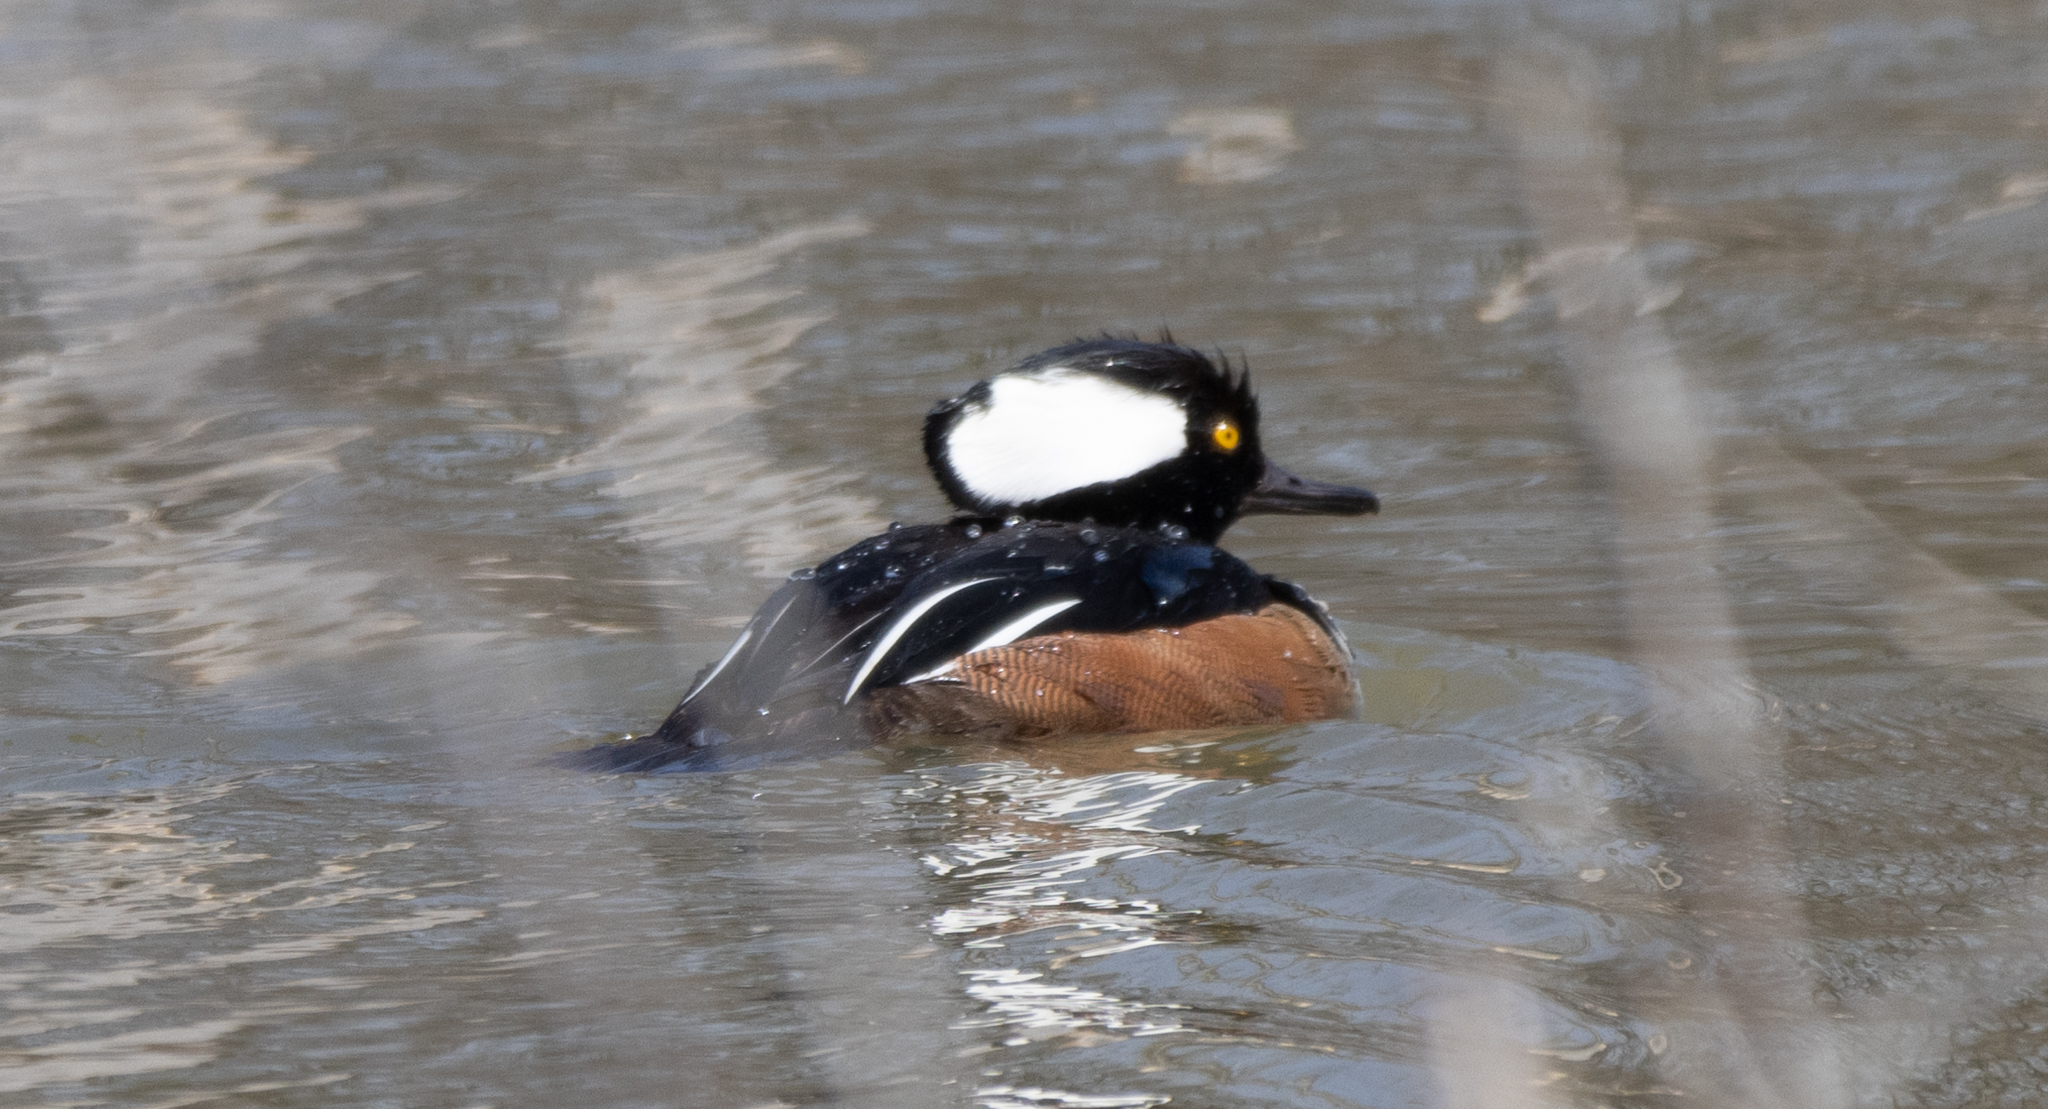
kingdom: Animalia
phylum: Chordata
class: Aves
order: Anseriformes
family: Anatidae
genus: Lophodytes
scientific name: Lophodytes cucullatus
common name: Hooded merganser
